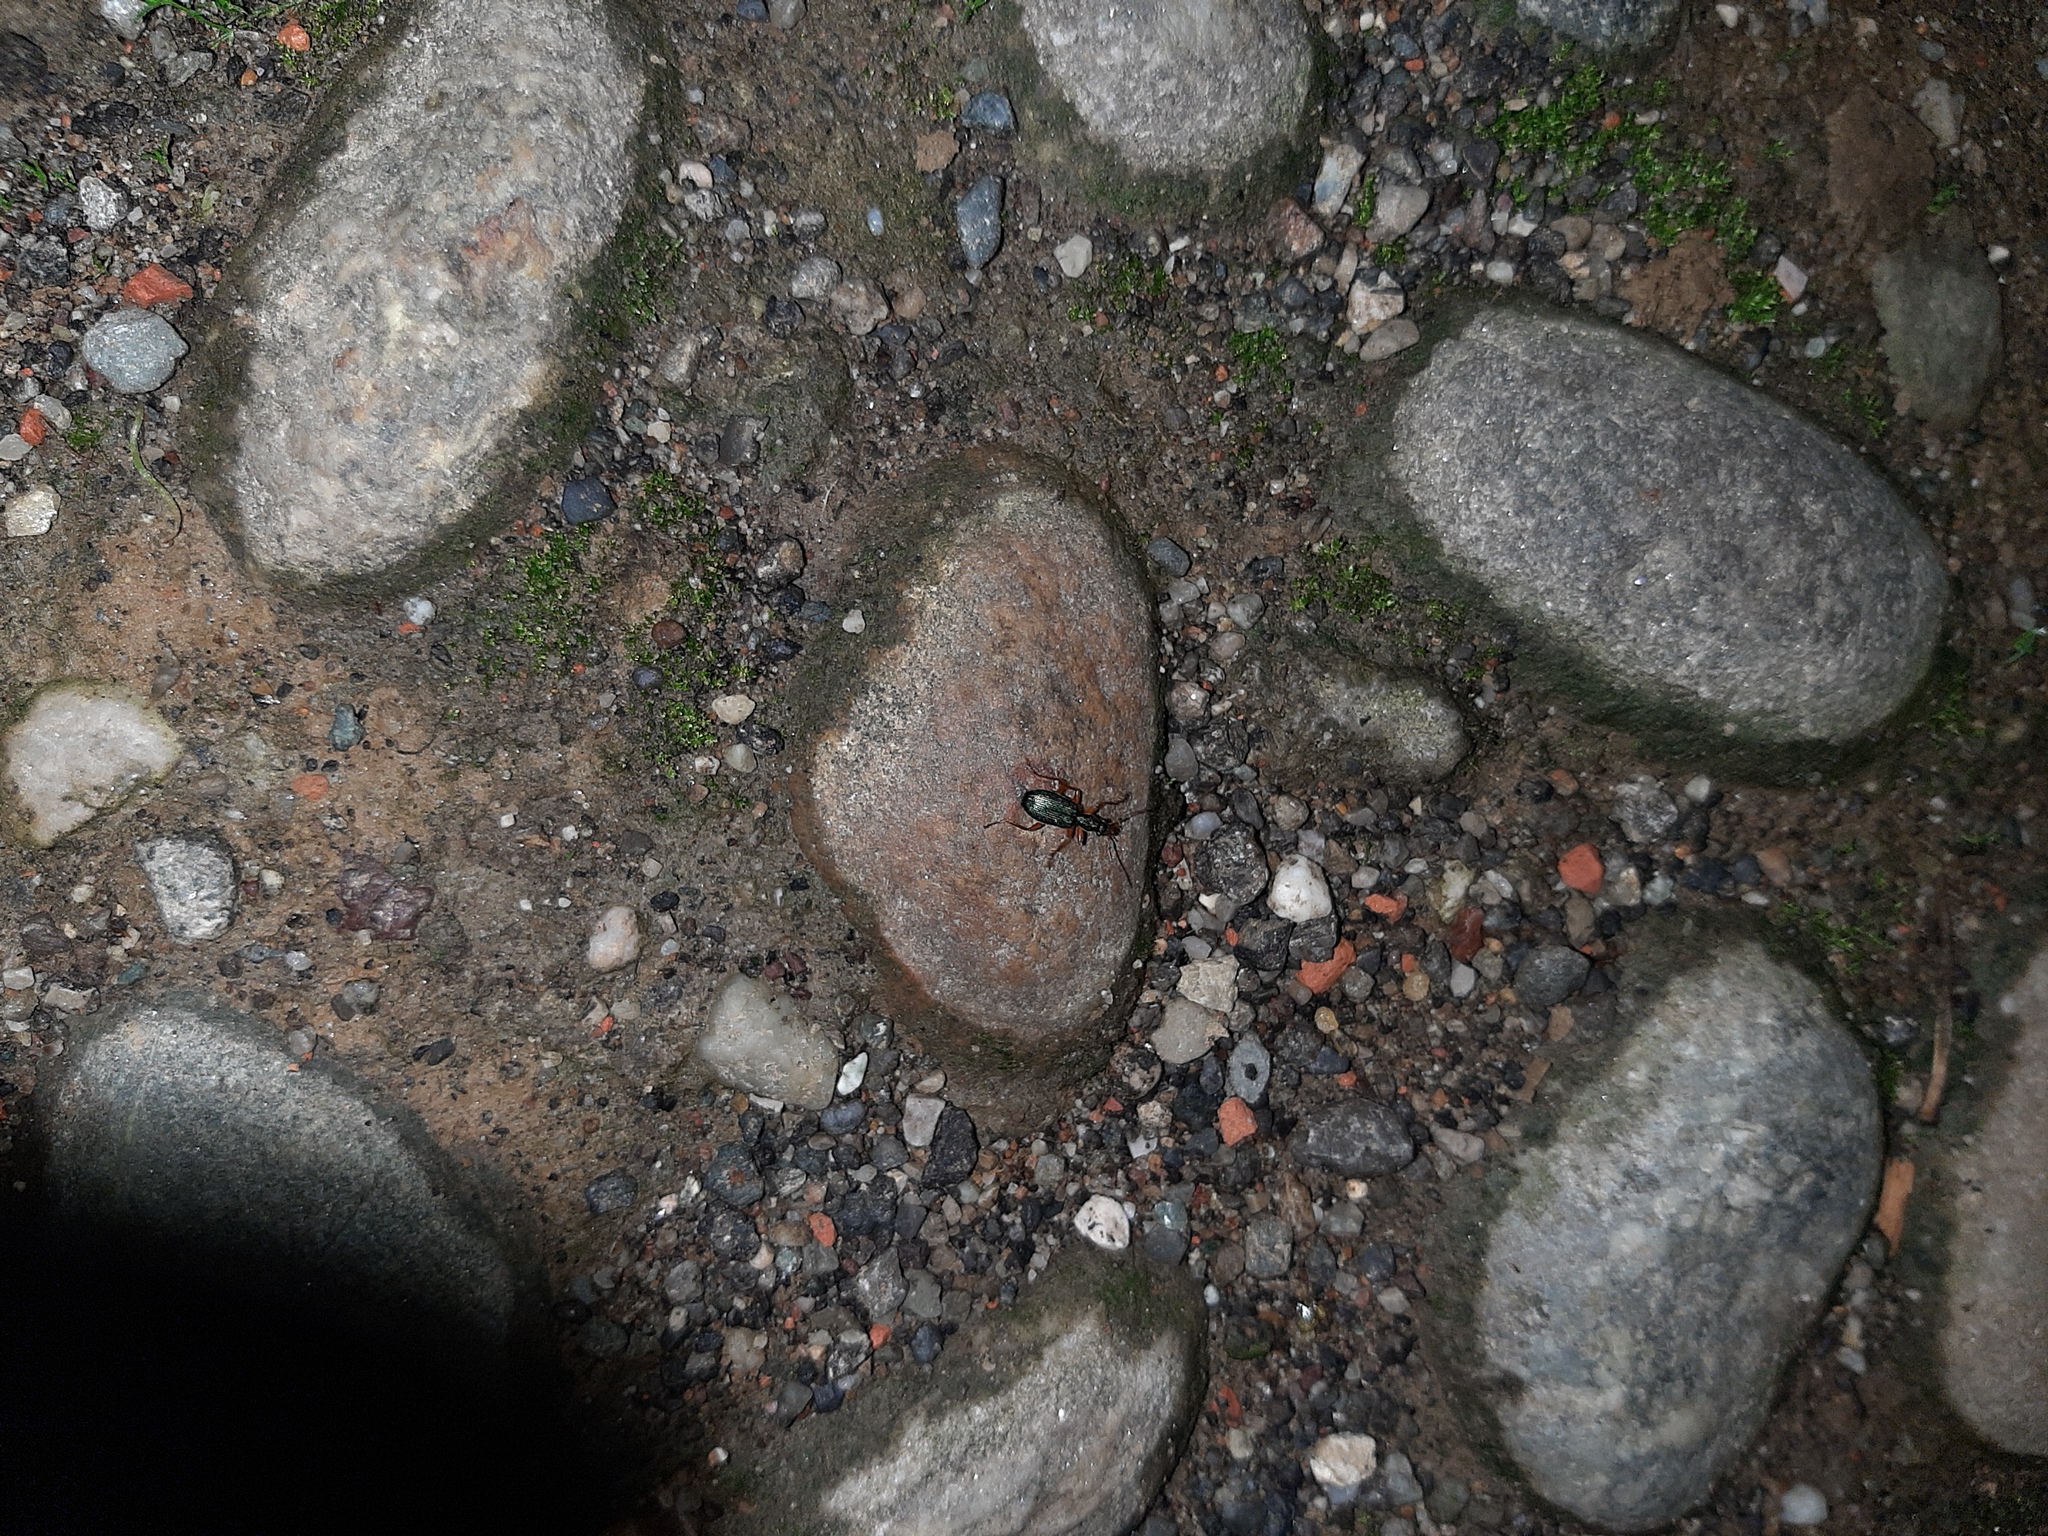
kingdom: Animalia
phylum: Arthropoda
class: Insecta
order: Coleoptera
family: Carabidae
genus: Drypta
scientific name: Drypta dentata
